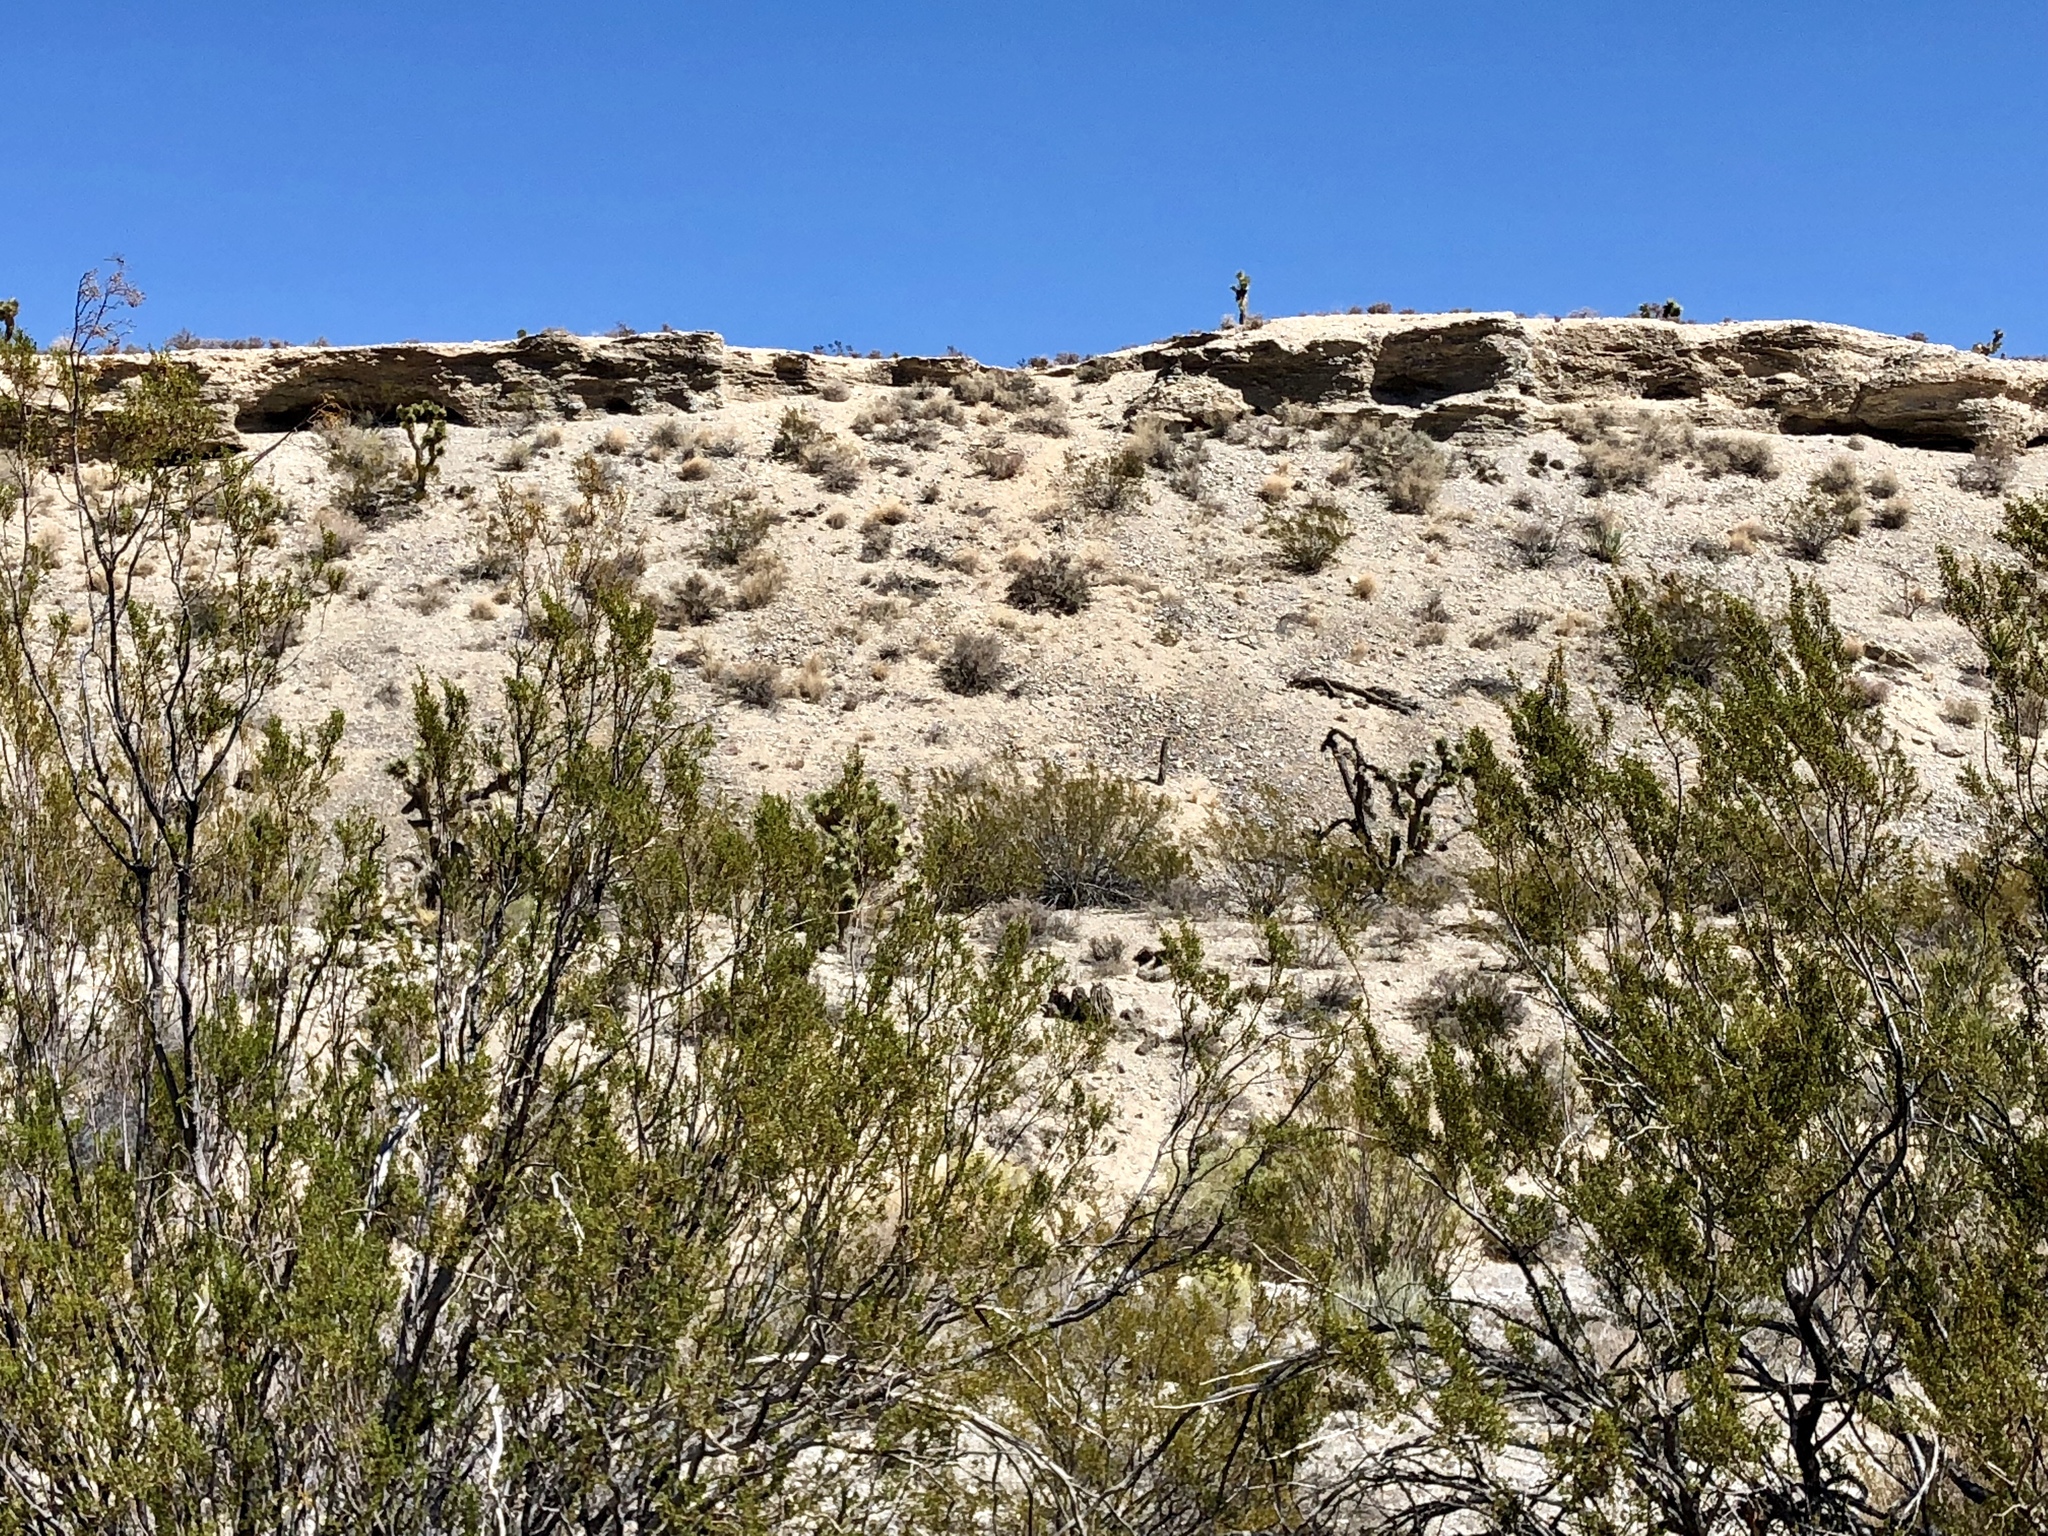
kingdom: Plantae
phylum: Tracheophyta
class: Magnoliopsida
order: Zygophyllales
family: Zygophyllaceae
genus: Larrea
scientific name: Larrea tridentata
